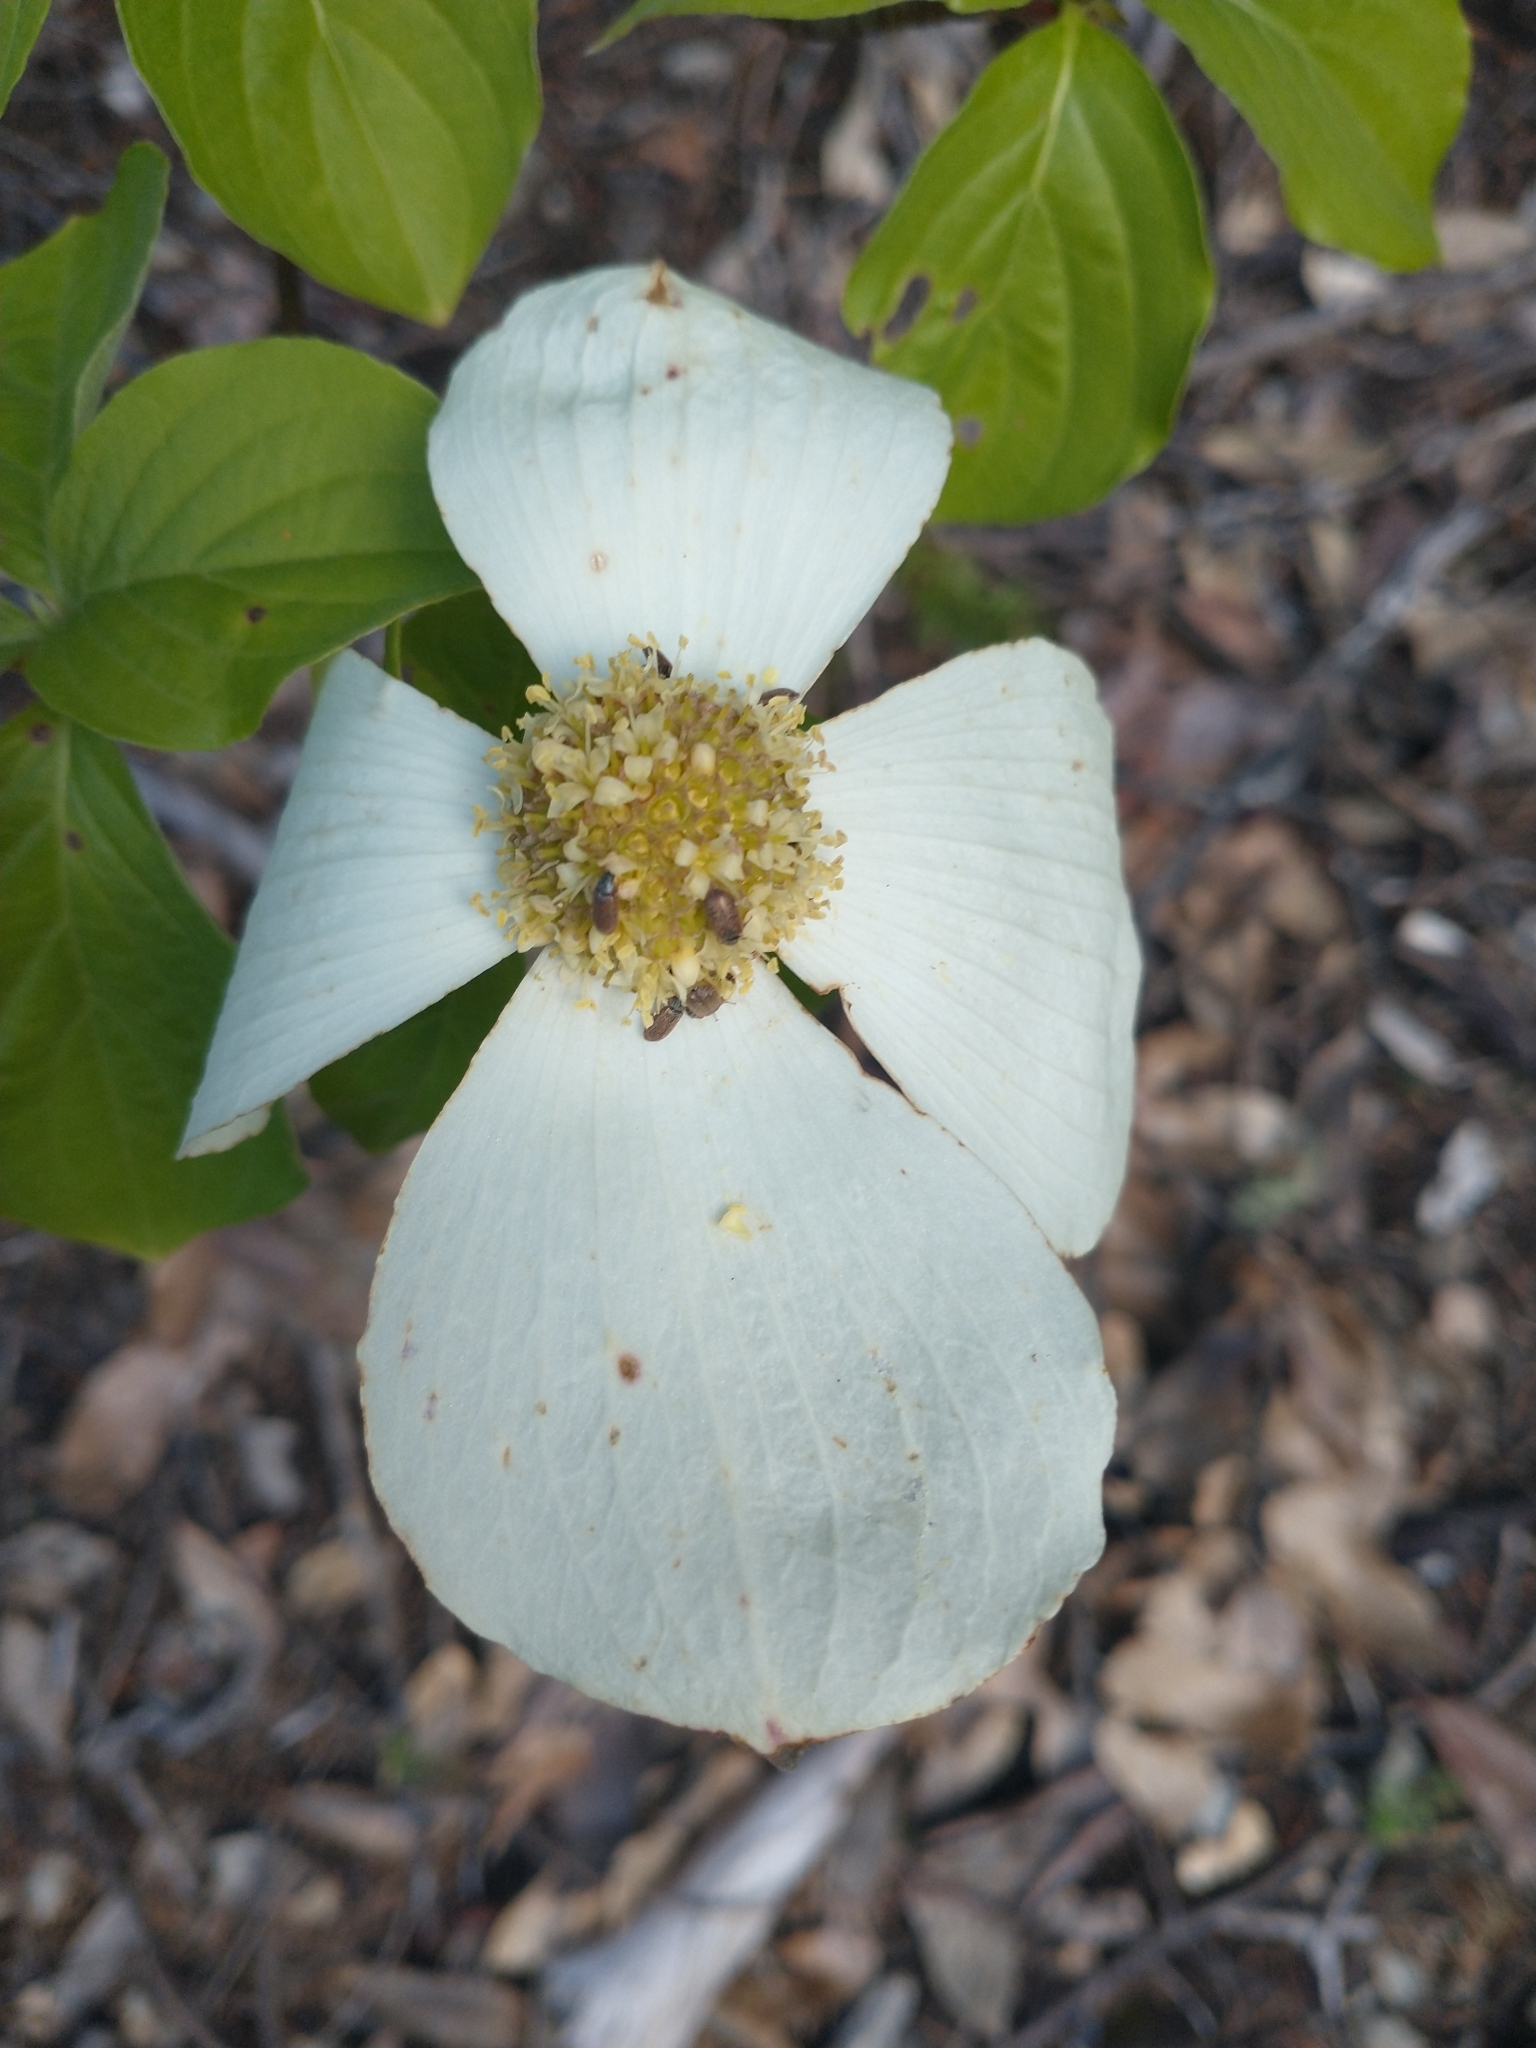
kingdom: Plantae
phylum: Tracheophyta
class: Magnoliopsida
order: Cornales
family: Cornaceae
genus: Cornus
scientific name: Cornus nuttallii
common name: Pacific dogwood
